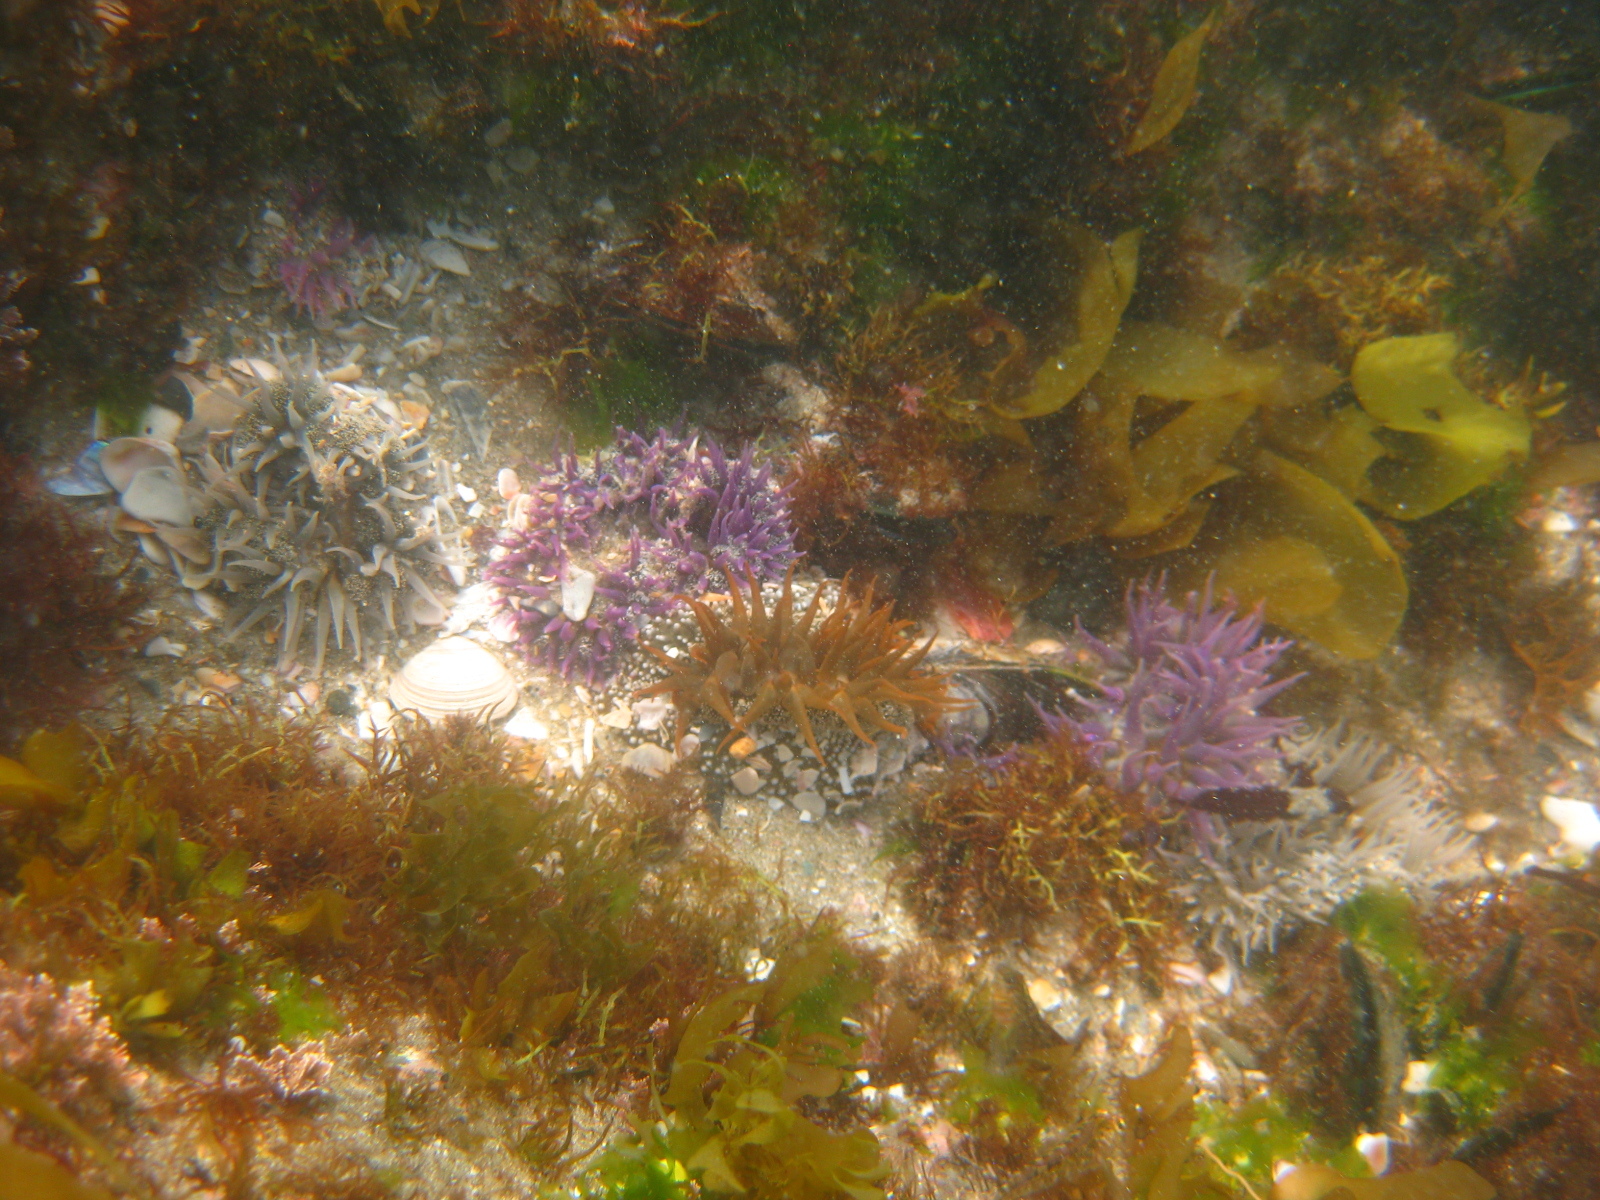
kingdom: Animalia
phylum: Cnidaria
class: Anthozoa
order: Actiniaria
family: Actiniidae
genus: Oulactis
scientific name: Oulactis magna
